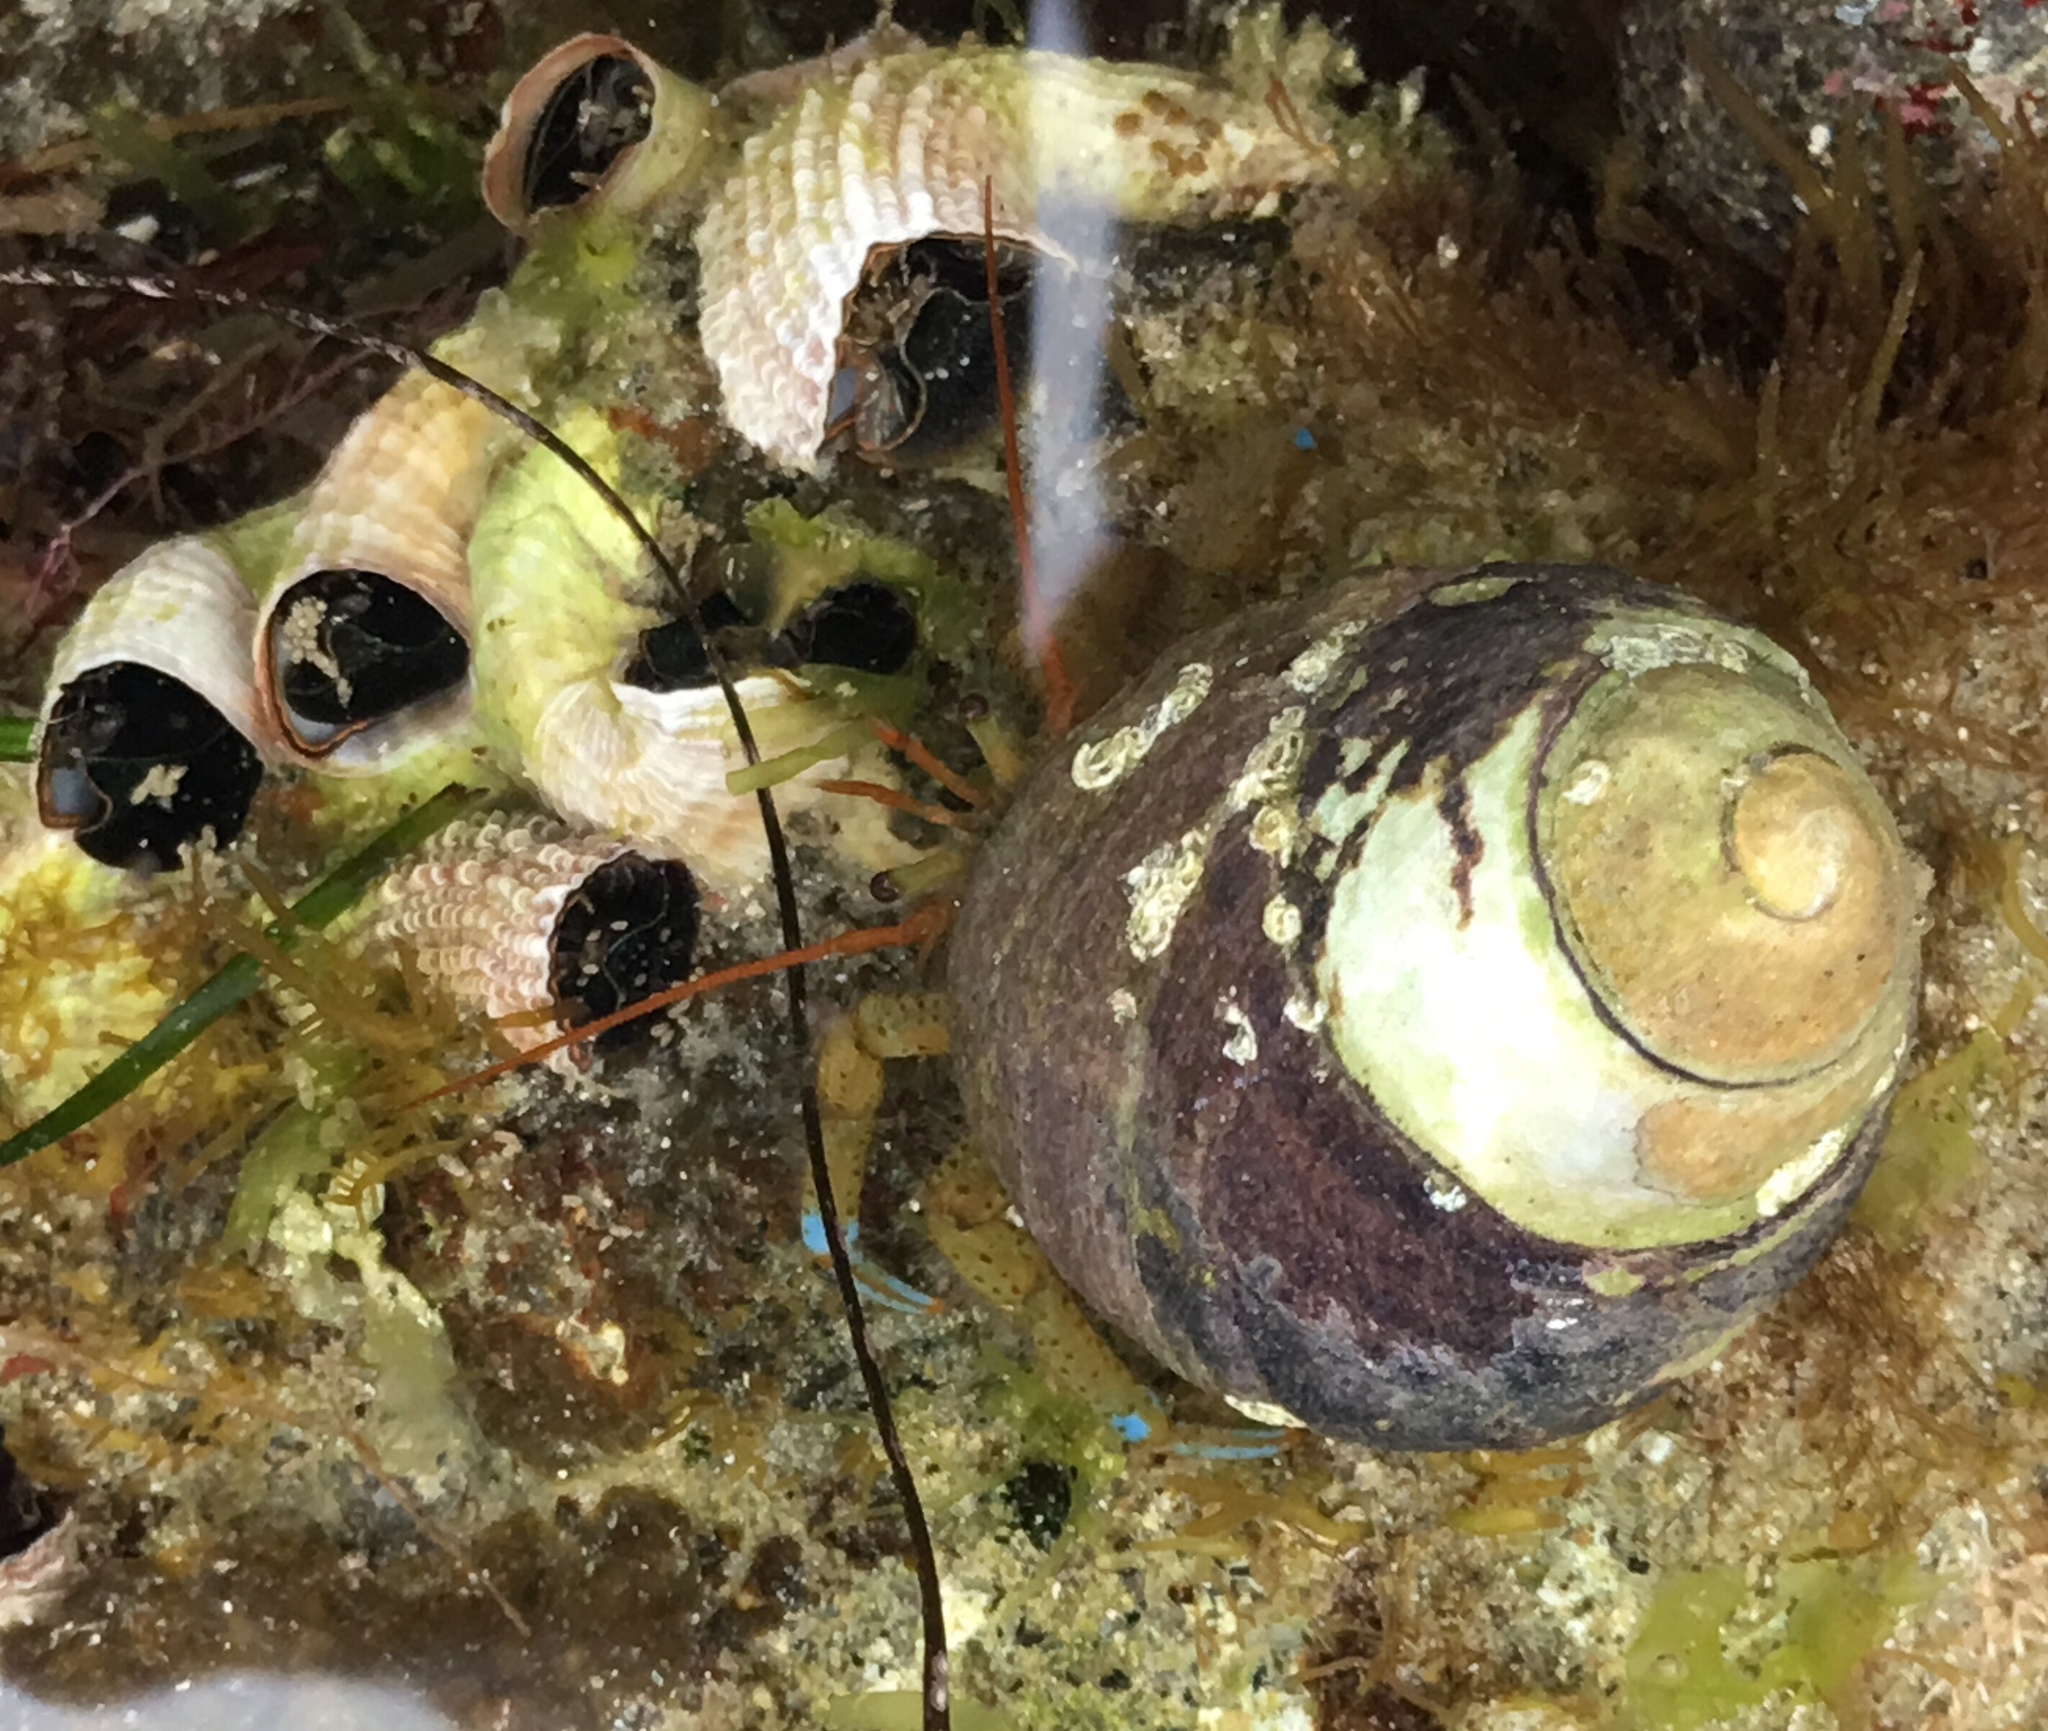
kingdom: Animalia
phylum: Arthropoda
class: Malacostraca
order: Decapoda
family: Paguridae
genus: Pagurus
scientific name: Pagurus samuelis
